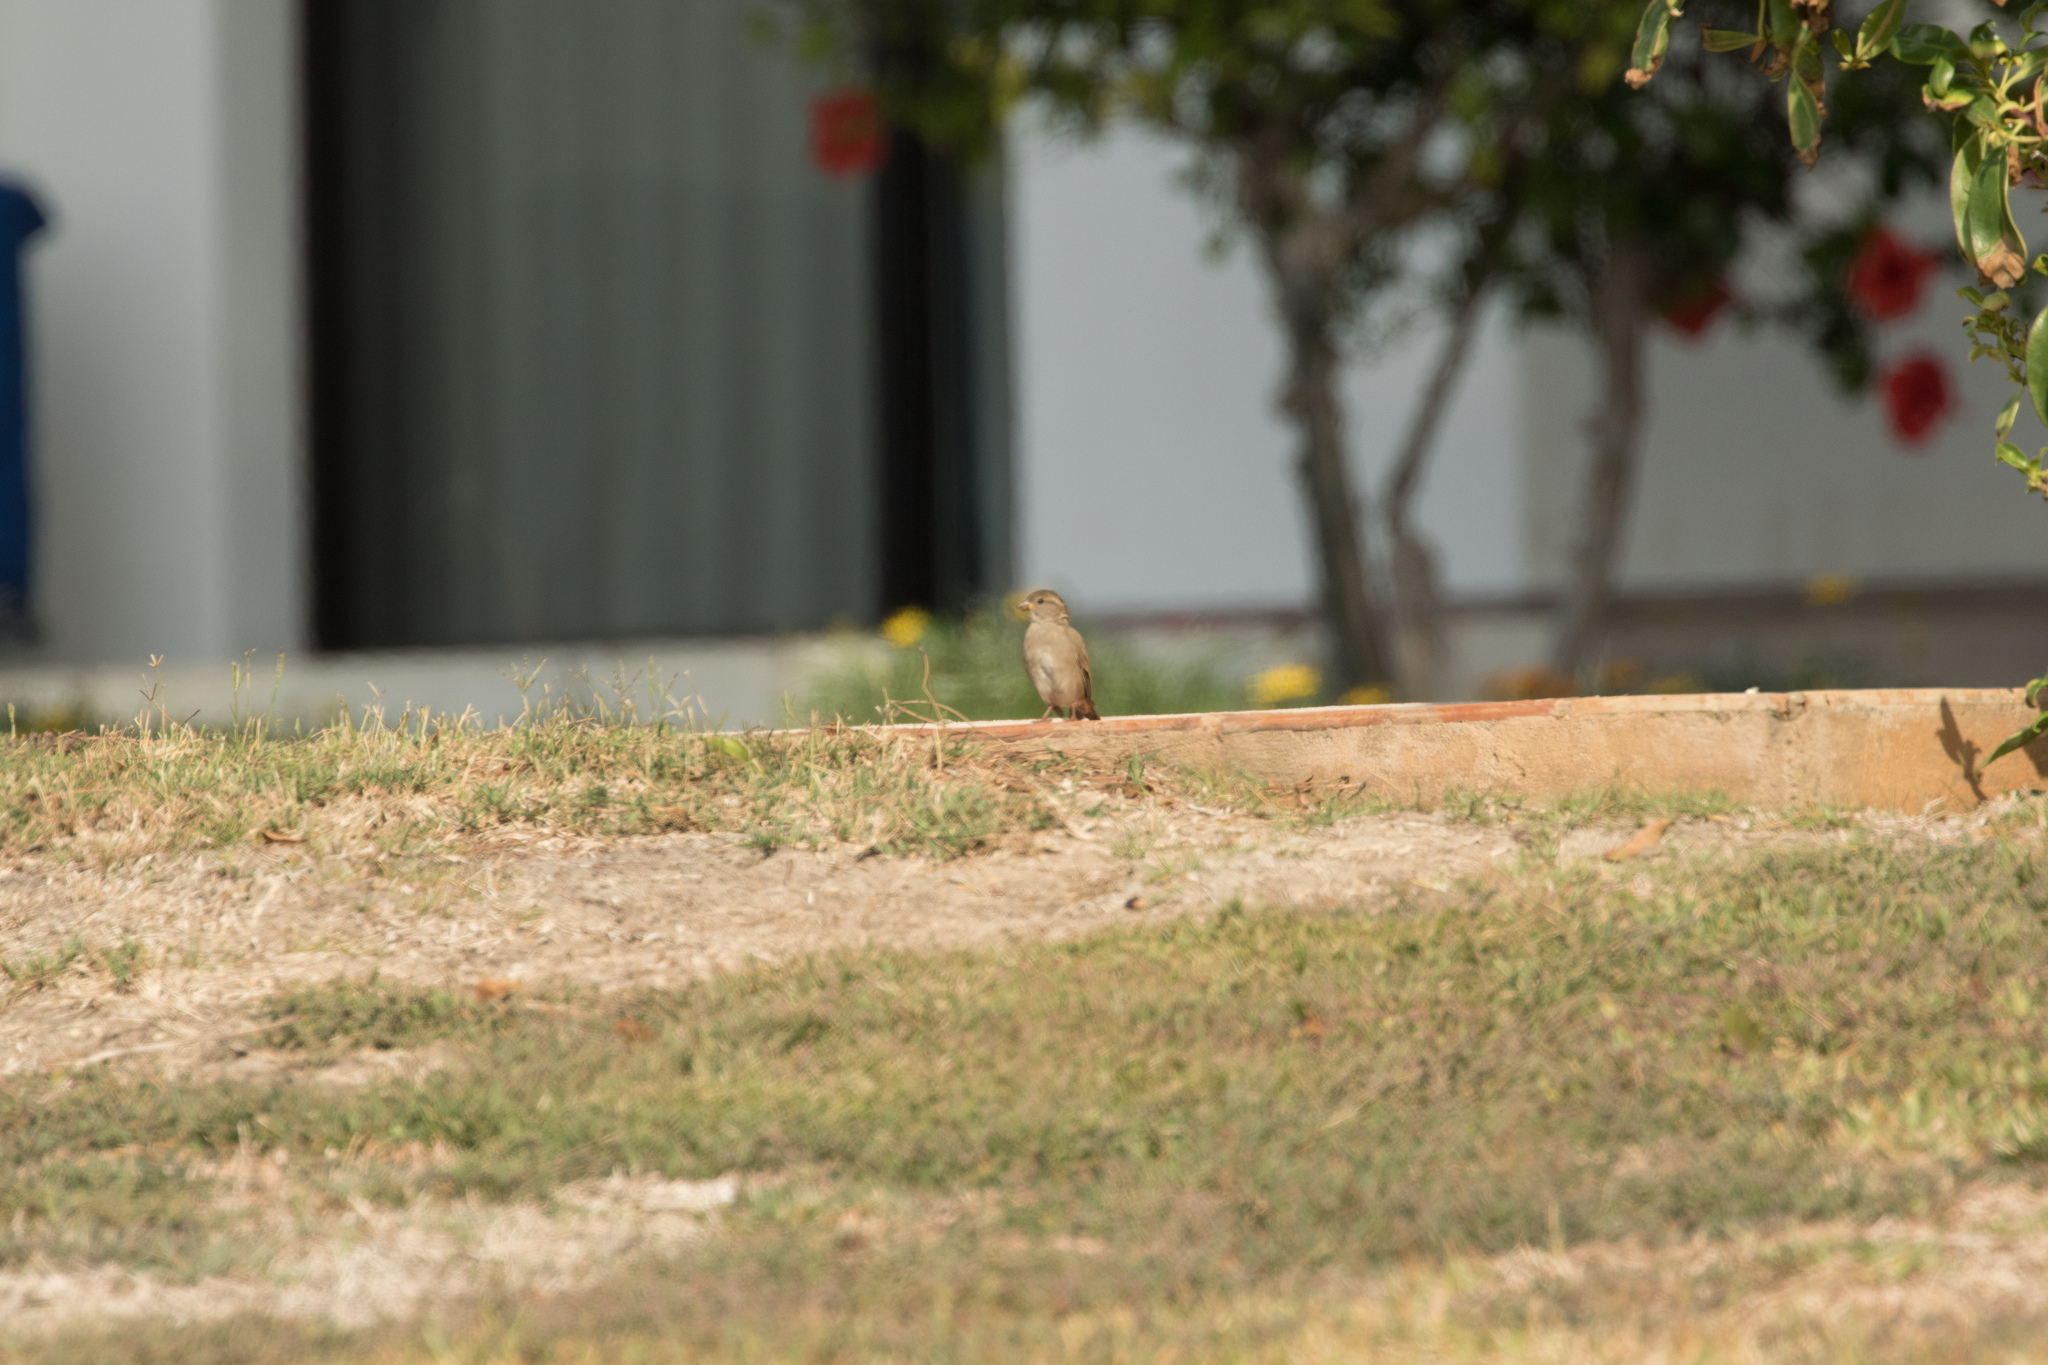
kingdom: Animalia
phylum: Chordata
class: Aves
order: Passeriformes
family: Passeridae
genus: Passer
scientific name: Passer domesticus
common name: House sparrow
